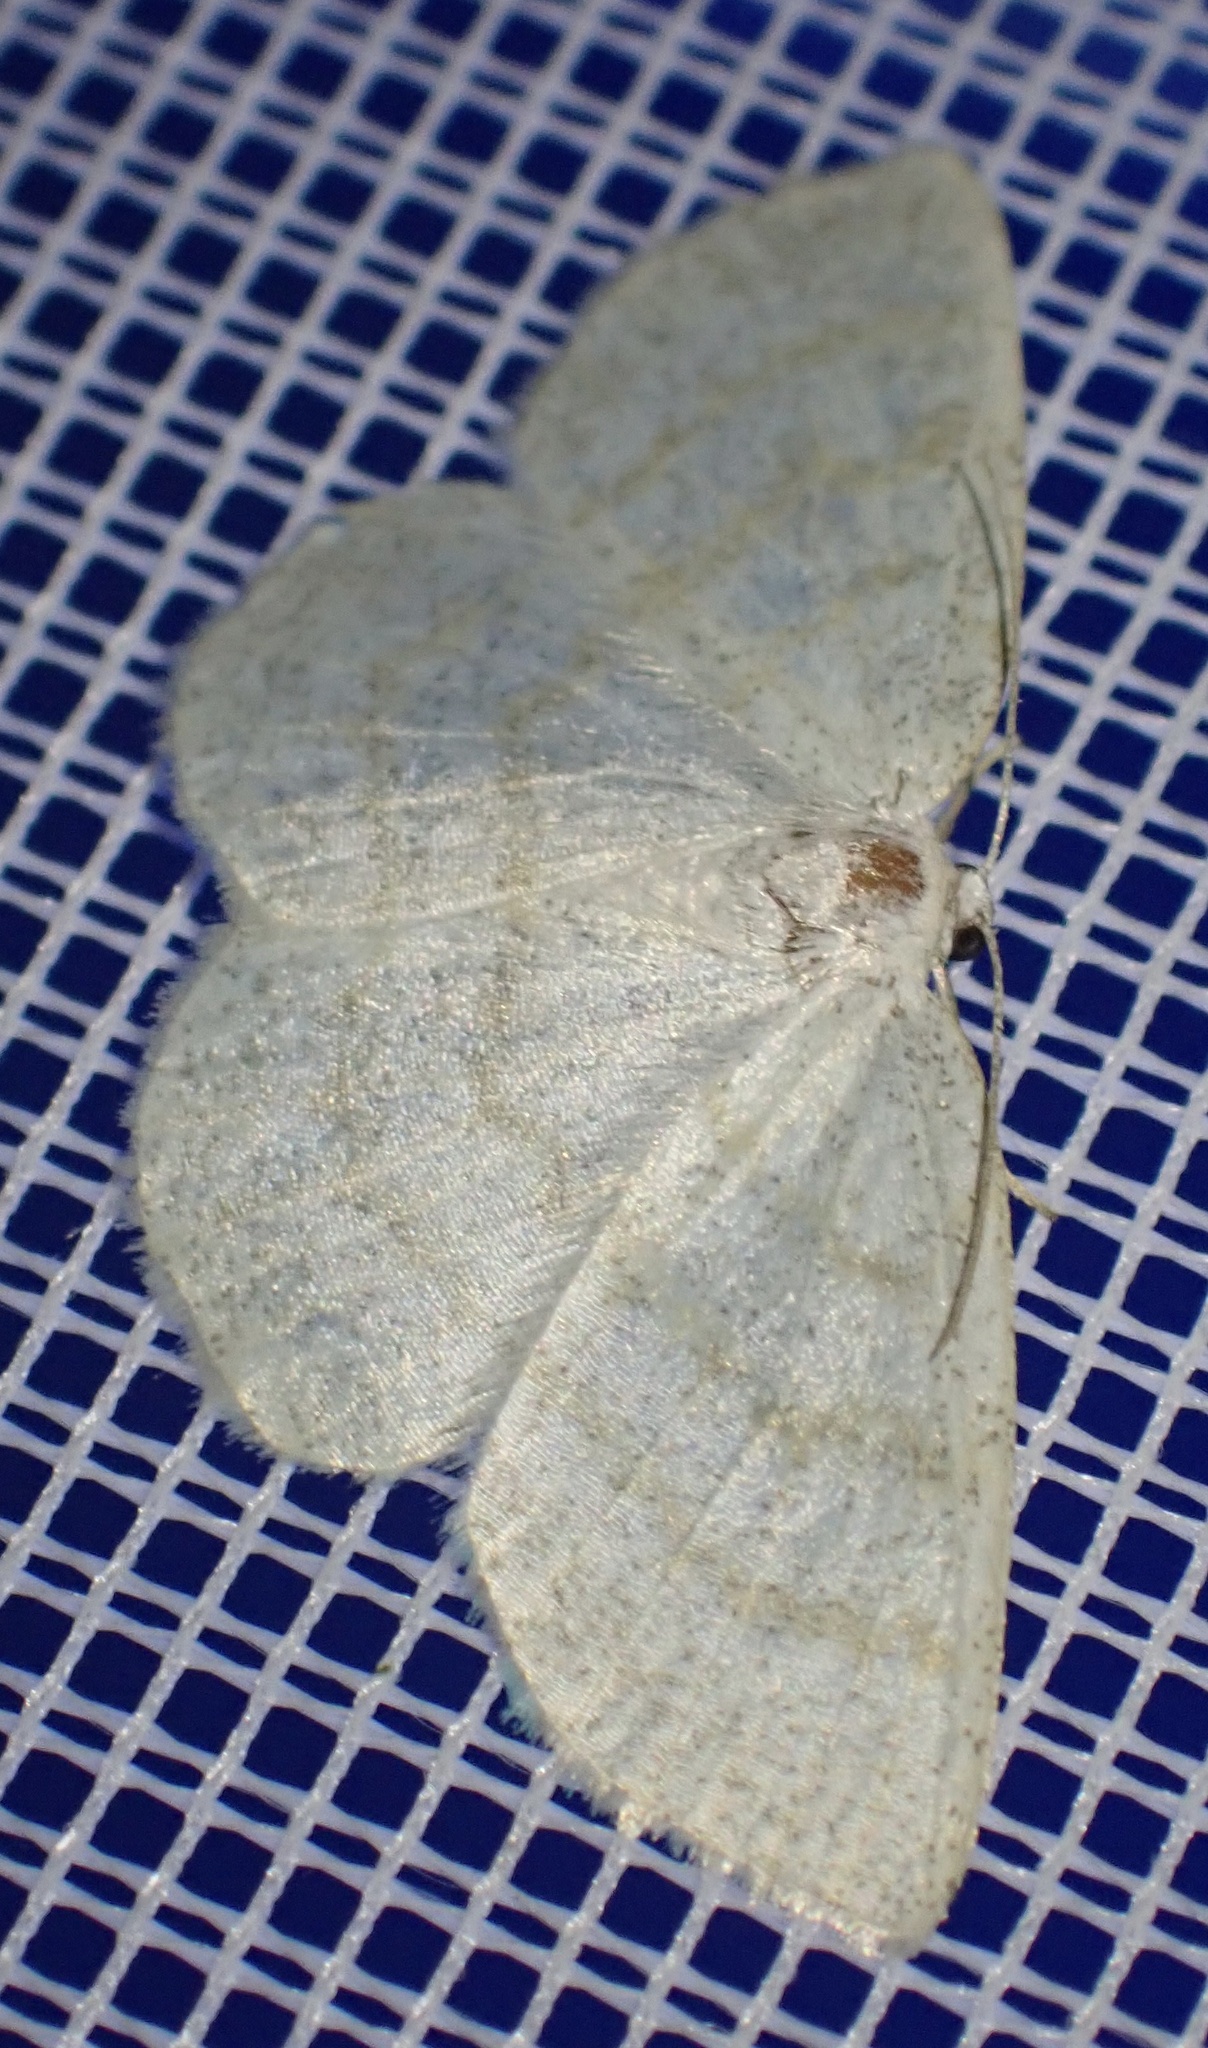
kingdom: Animalia
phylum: Arthropoda
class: Insecta
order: Lepidoptera
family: Geometridae
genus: Cabera
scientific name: Cabera exanthemata
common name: Common wave
